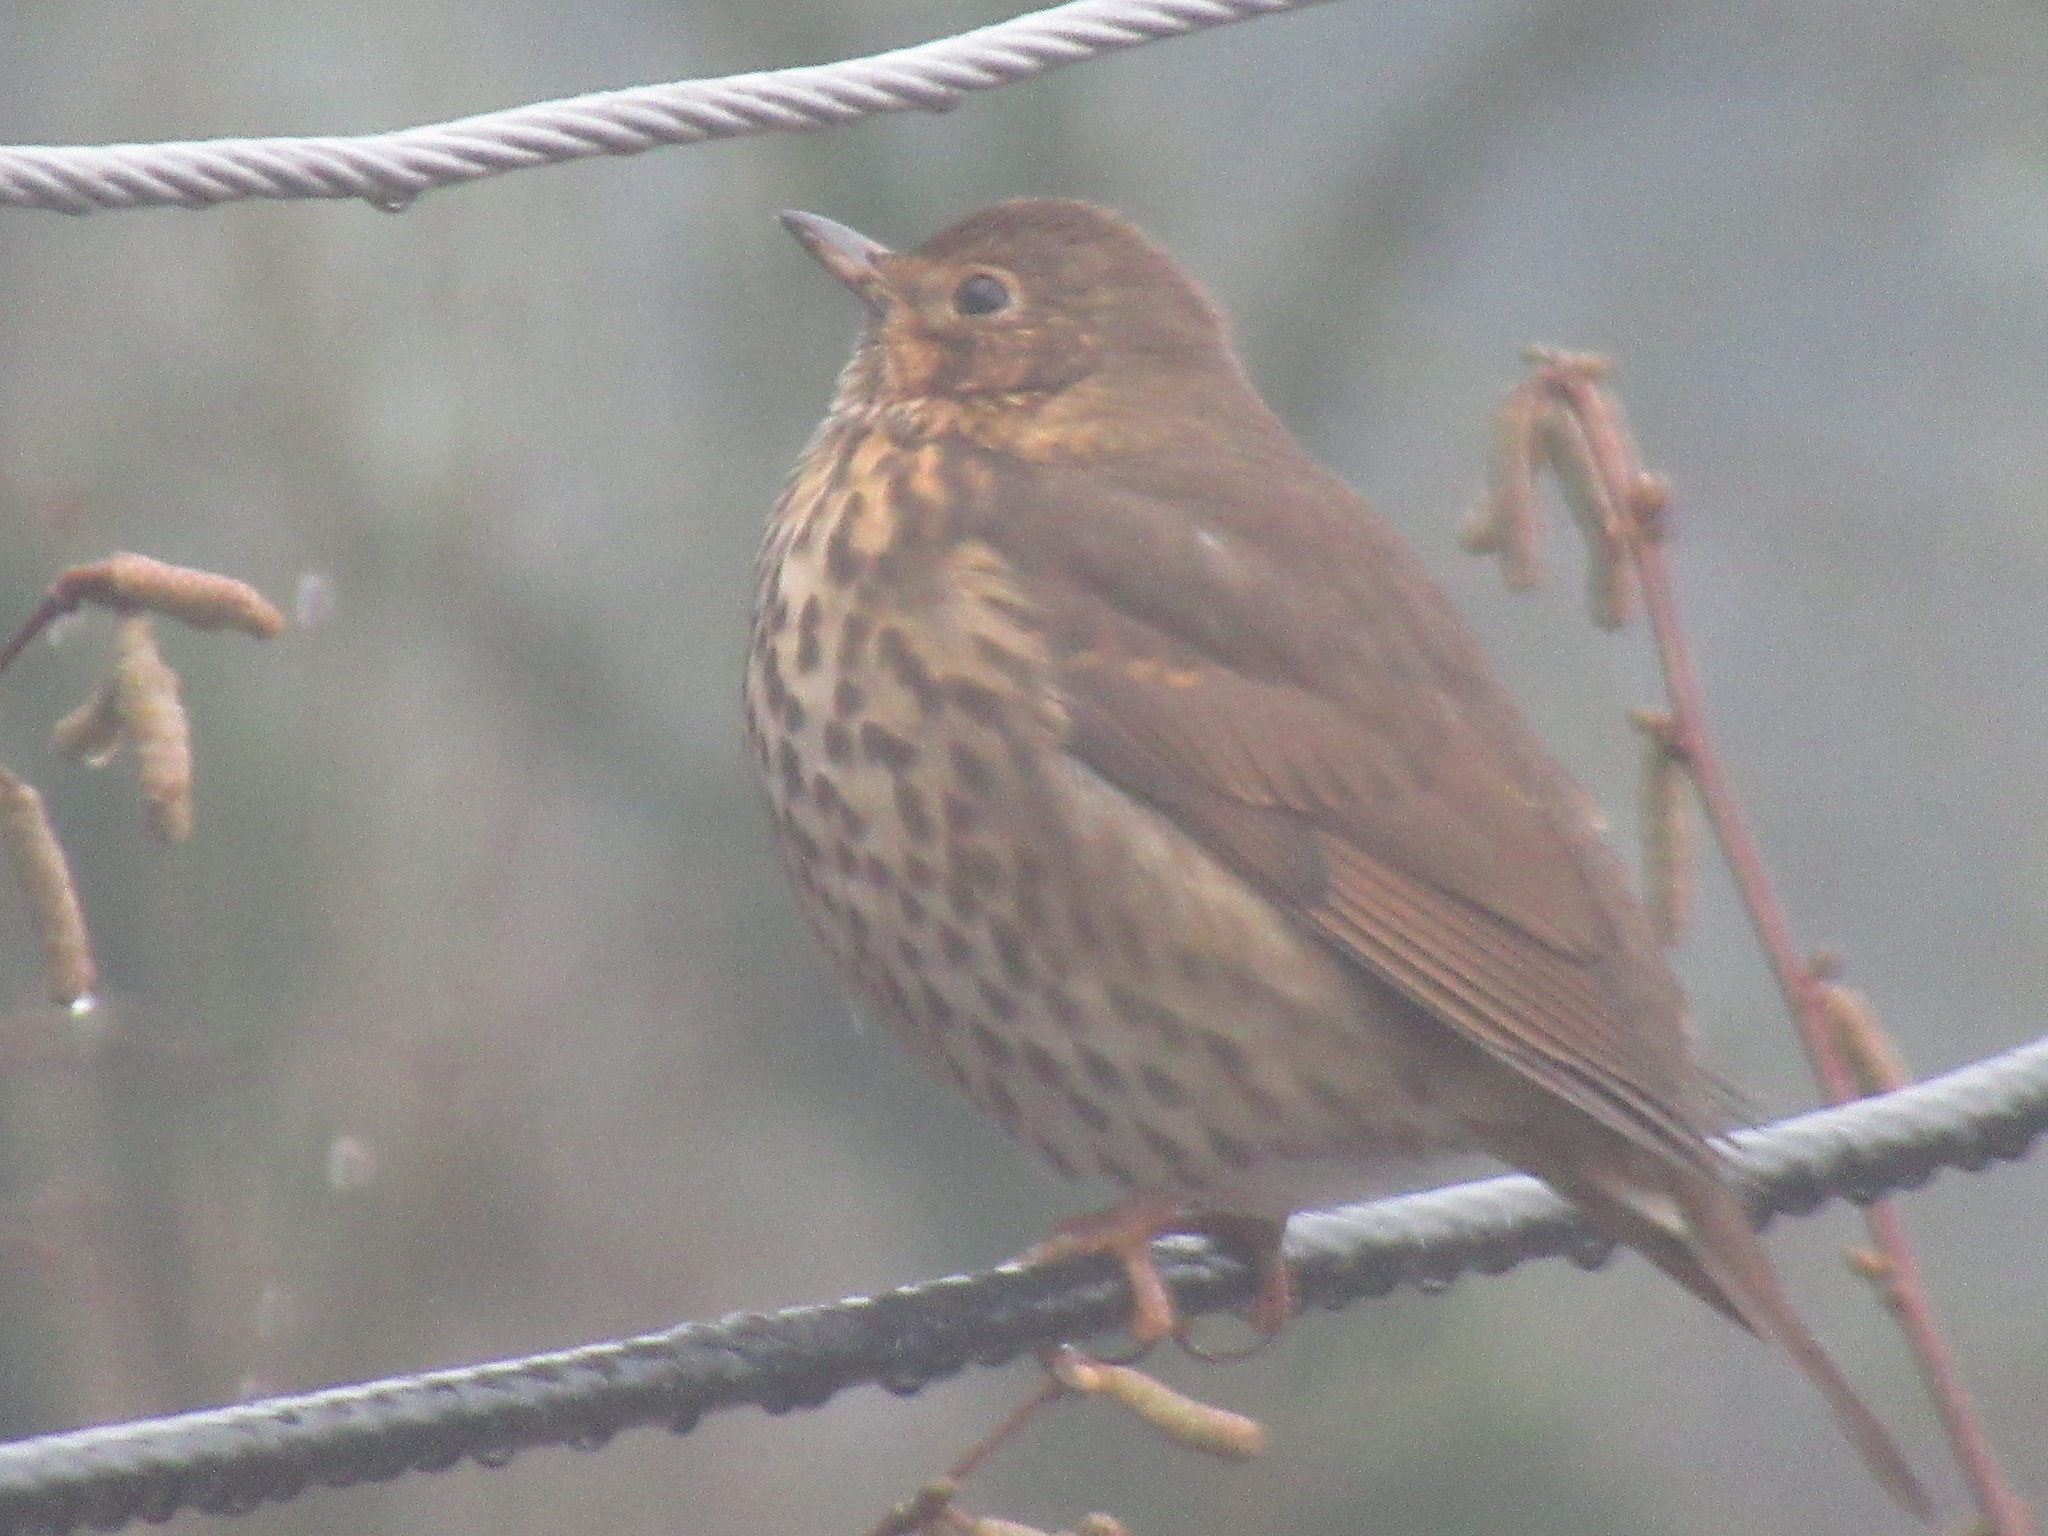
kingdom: Animalia
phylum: Chordata
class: Aves
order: Passeriformes
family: Turdidae
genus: Turdus
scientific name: Turdus philomelos
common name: Song thrush
